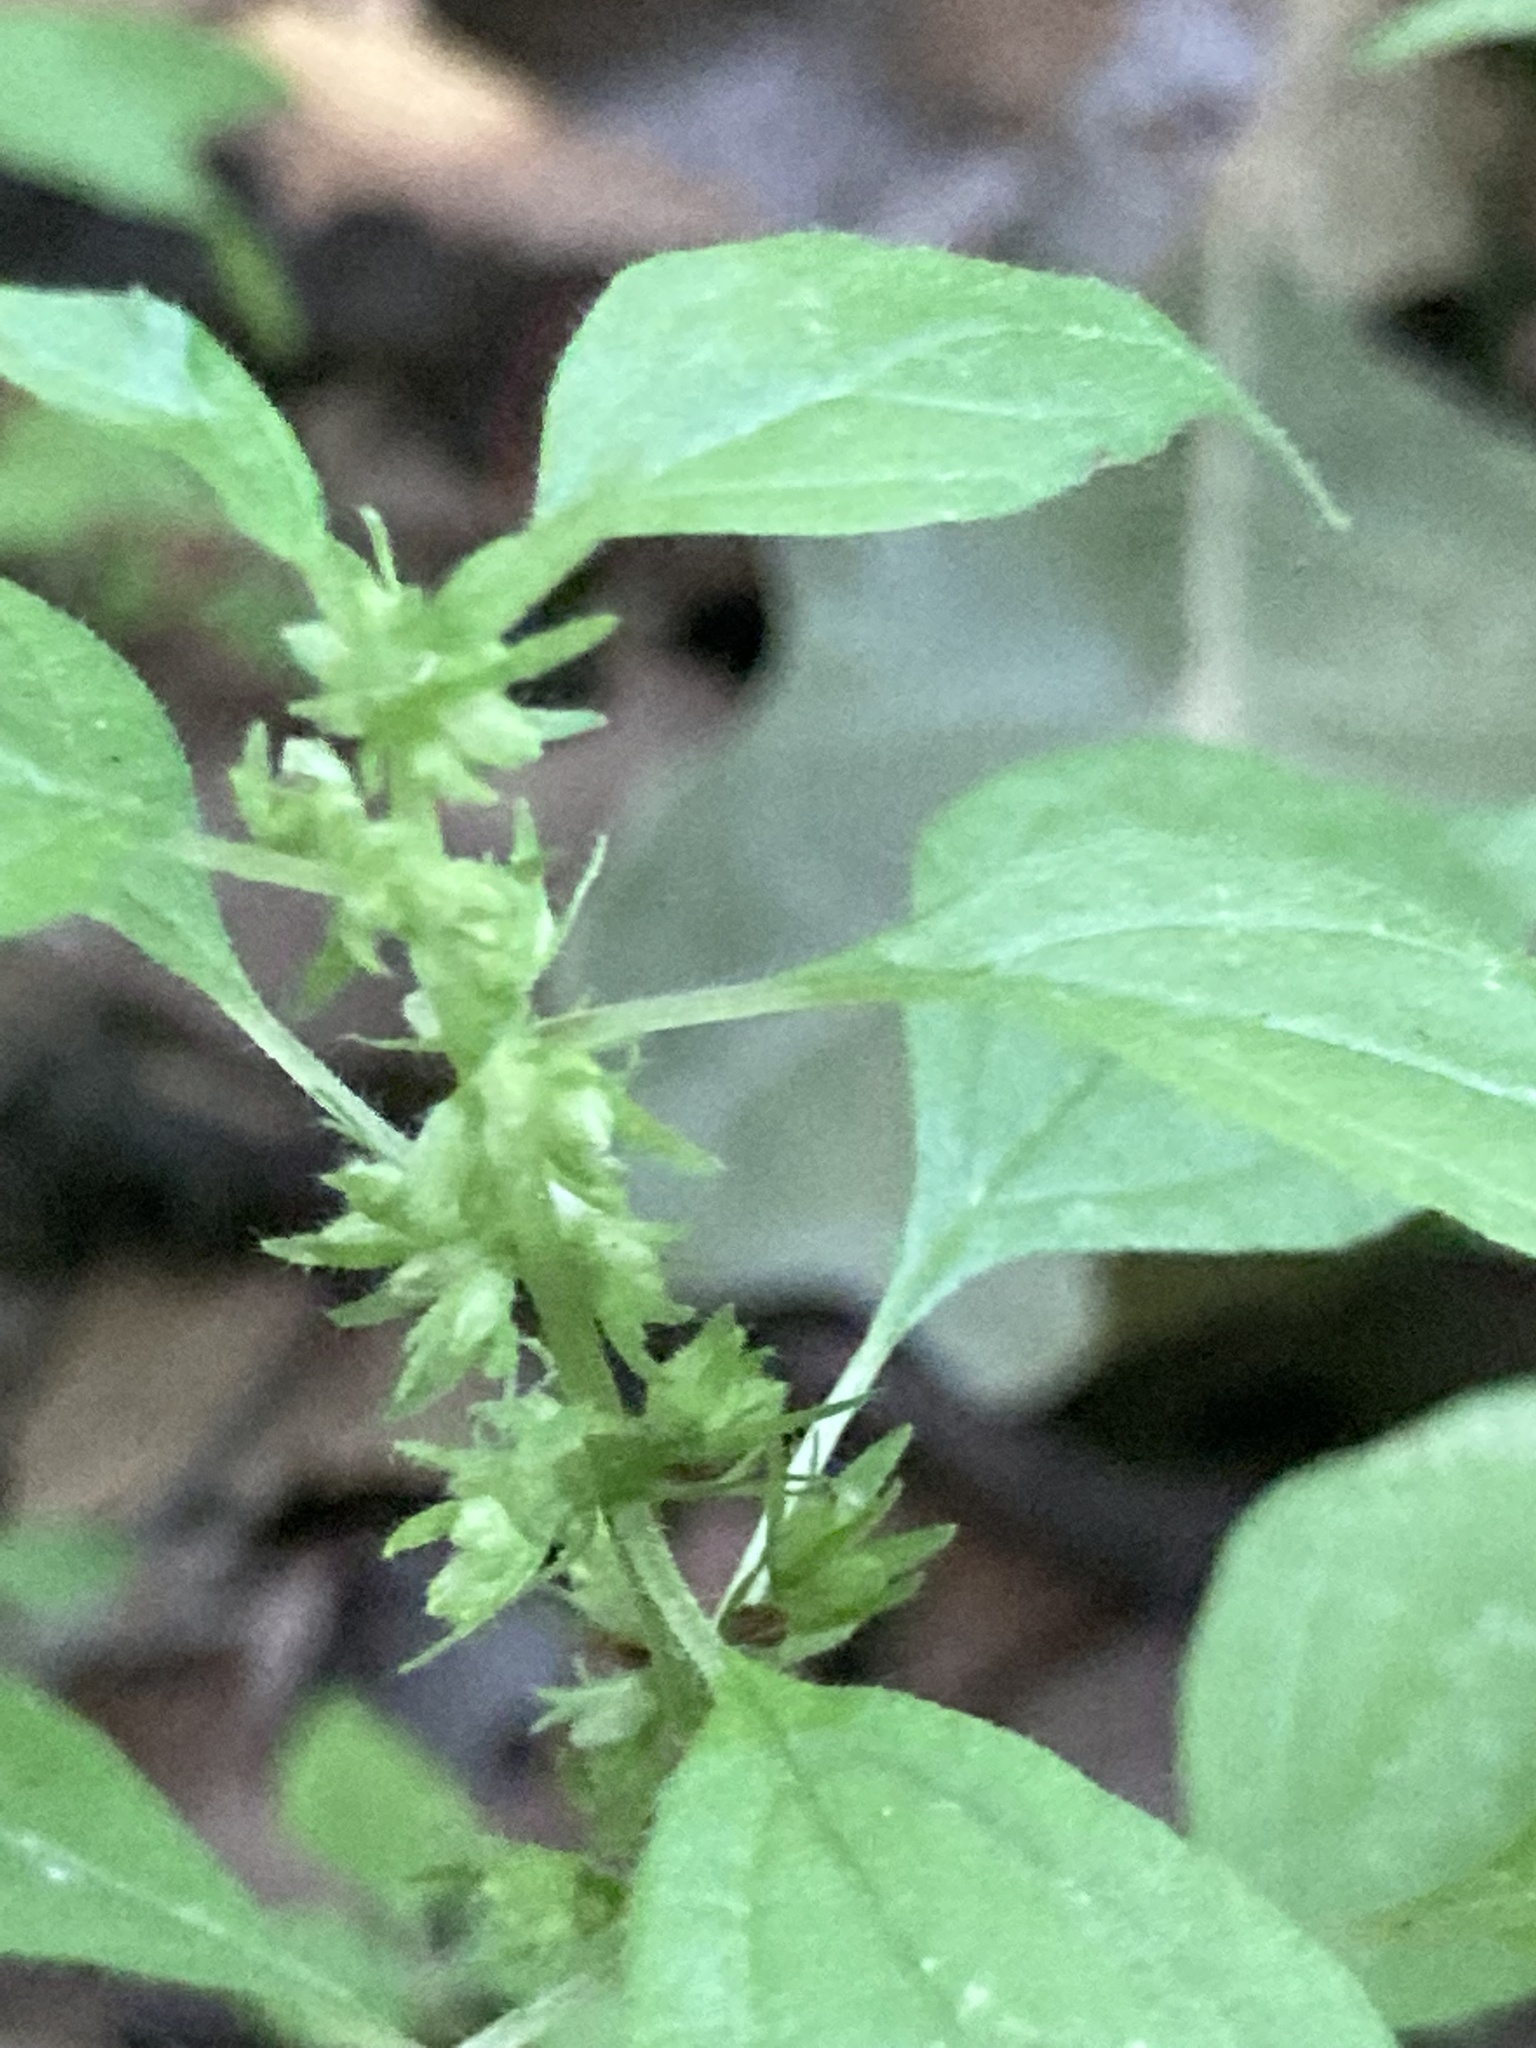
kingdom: Plantae
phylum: Tracheophyta
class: Magnoliopsida
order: Rosales
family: Urticaceae
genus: Parietaria
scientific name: Parietaria pensylvanica
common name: Pennsylvania pellitory
